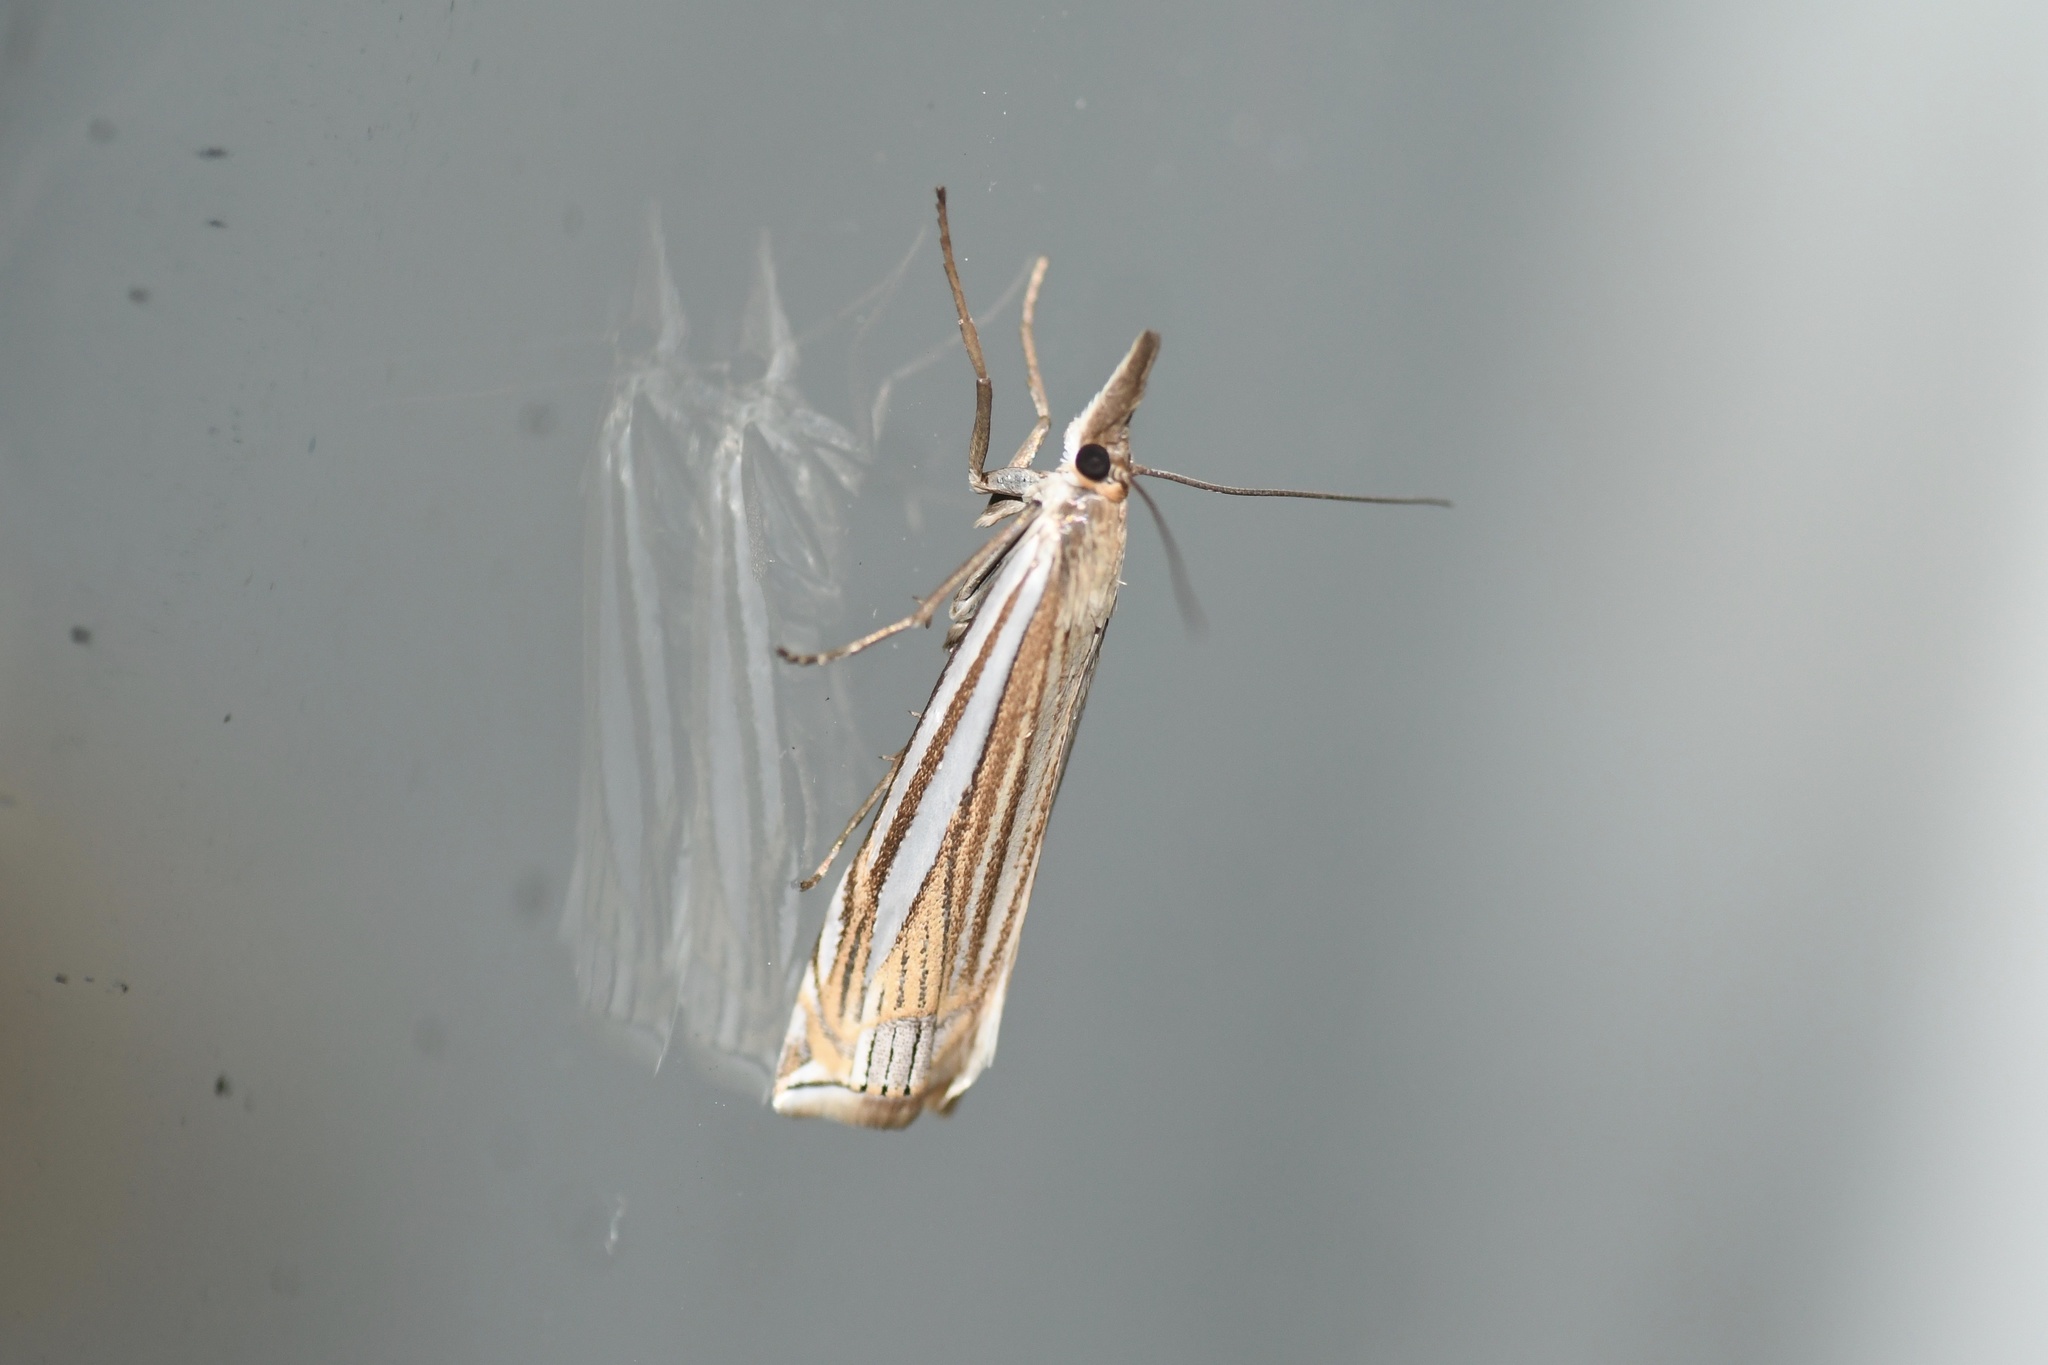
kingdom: Animalia
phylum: Arthropoda
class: Insecta
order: Lepidoptera
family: Crambidae
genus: Crambus
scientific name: Crambus laqueatellus
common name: Eastern grass-veneer
